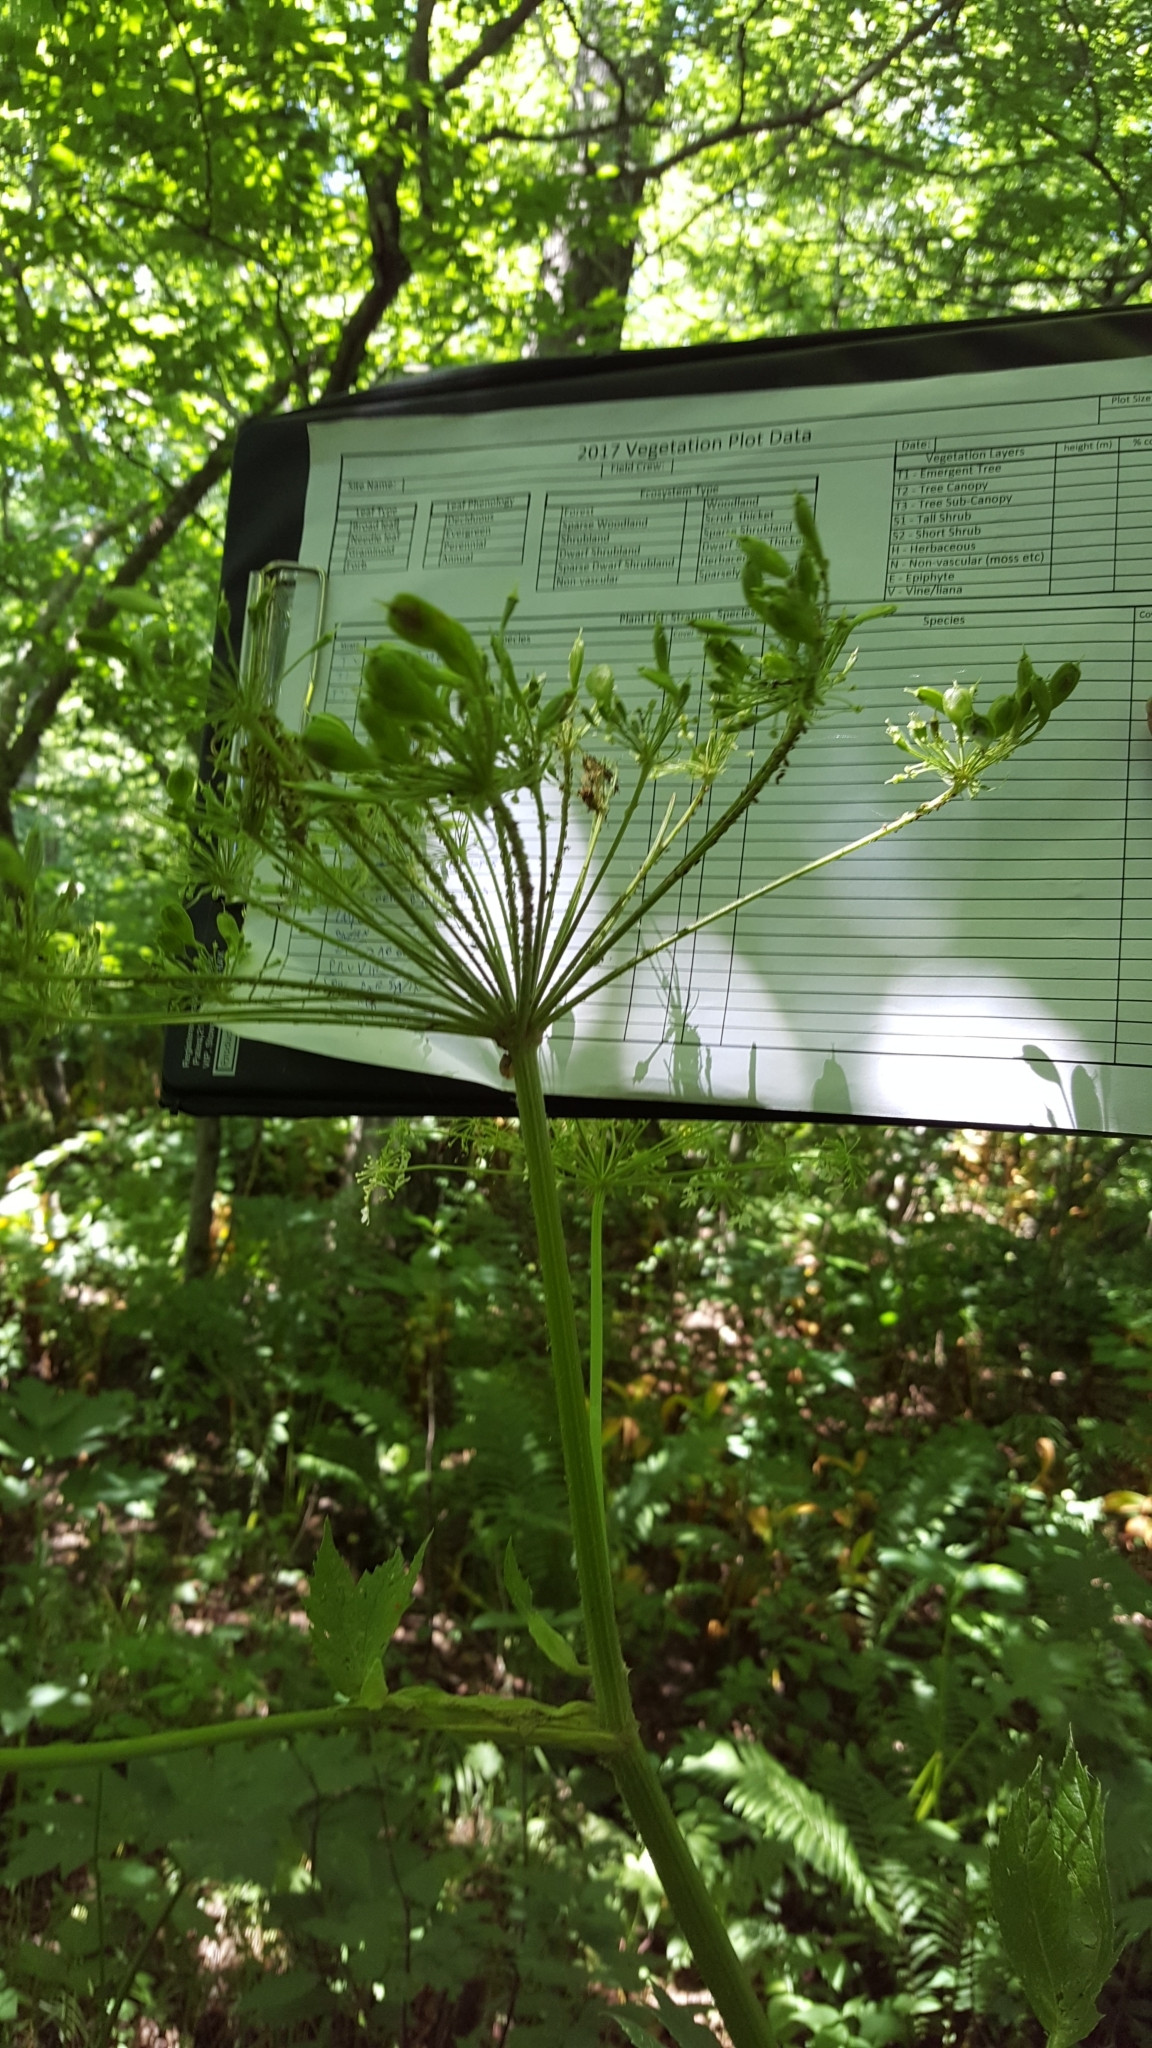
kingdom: Plantae
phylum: Tracheophyta
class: Magnoliopsida
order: Apiales
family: Apiaceae
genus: Heracleum
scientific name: Heracleum maximum
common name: American cow parsnip
